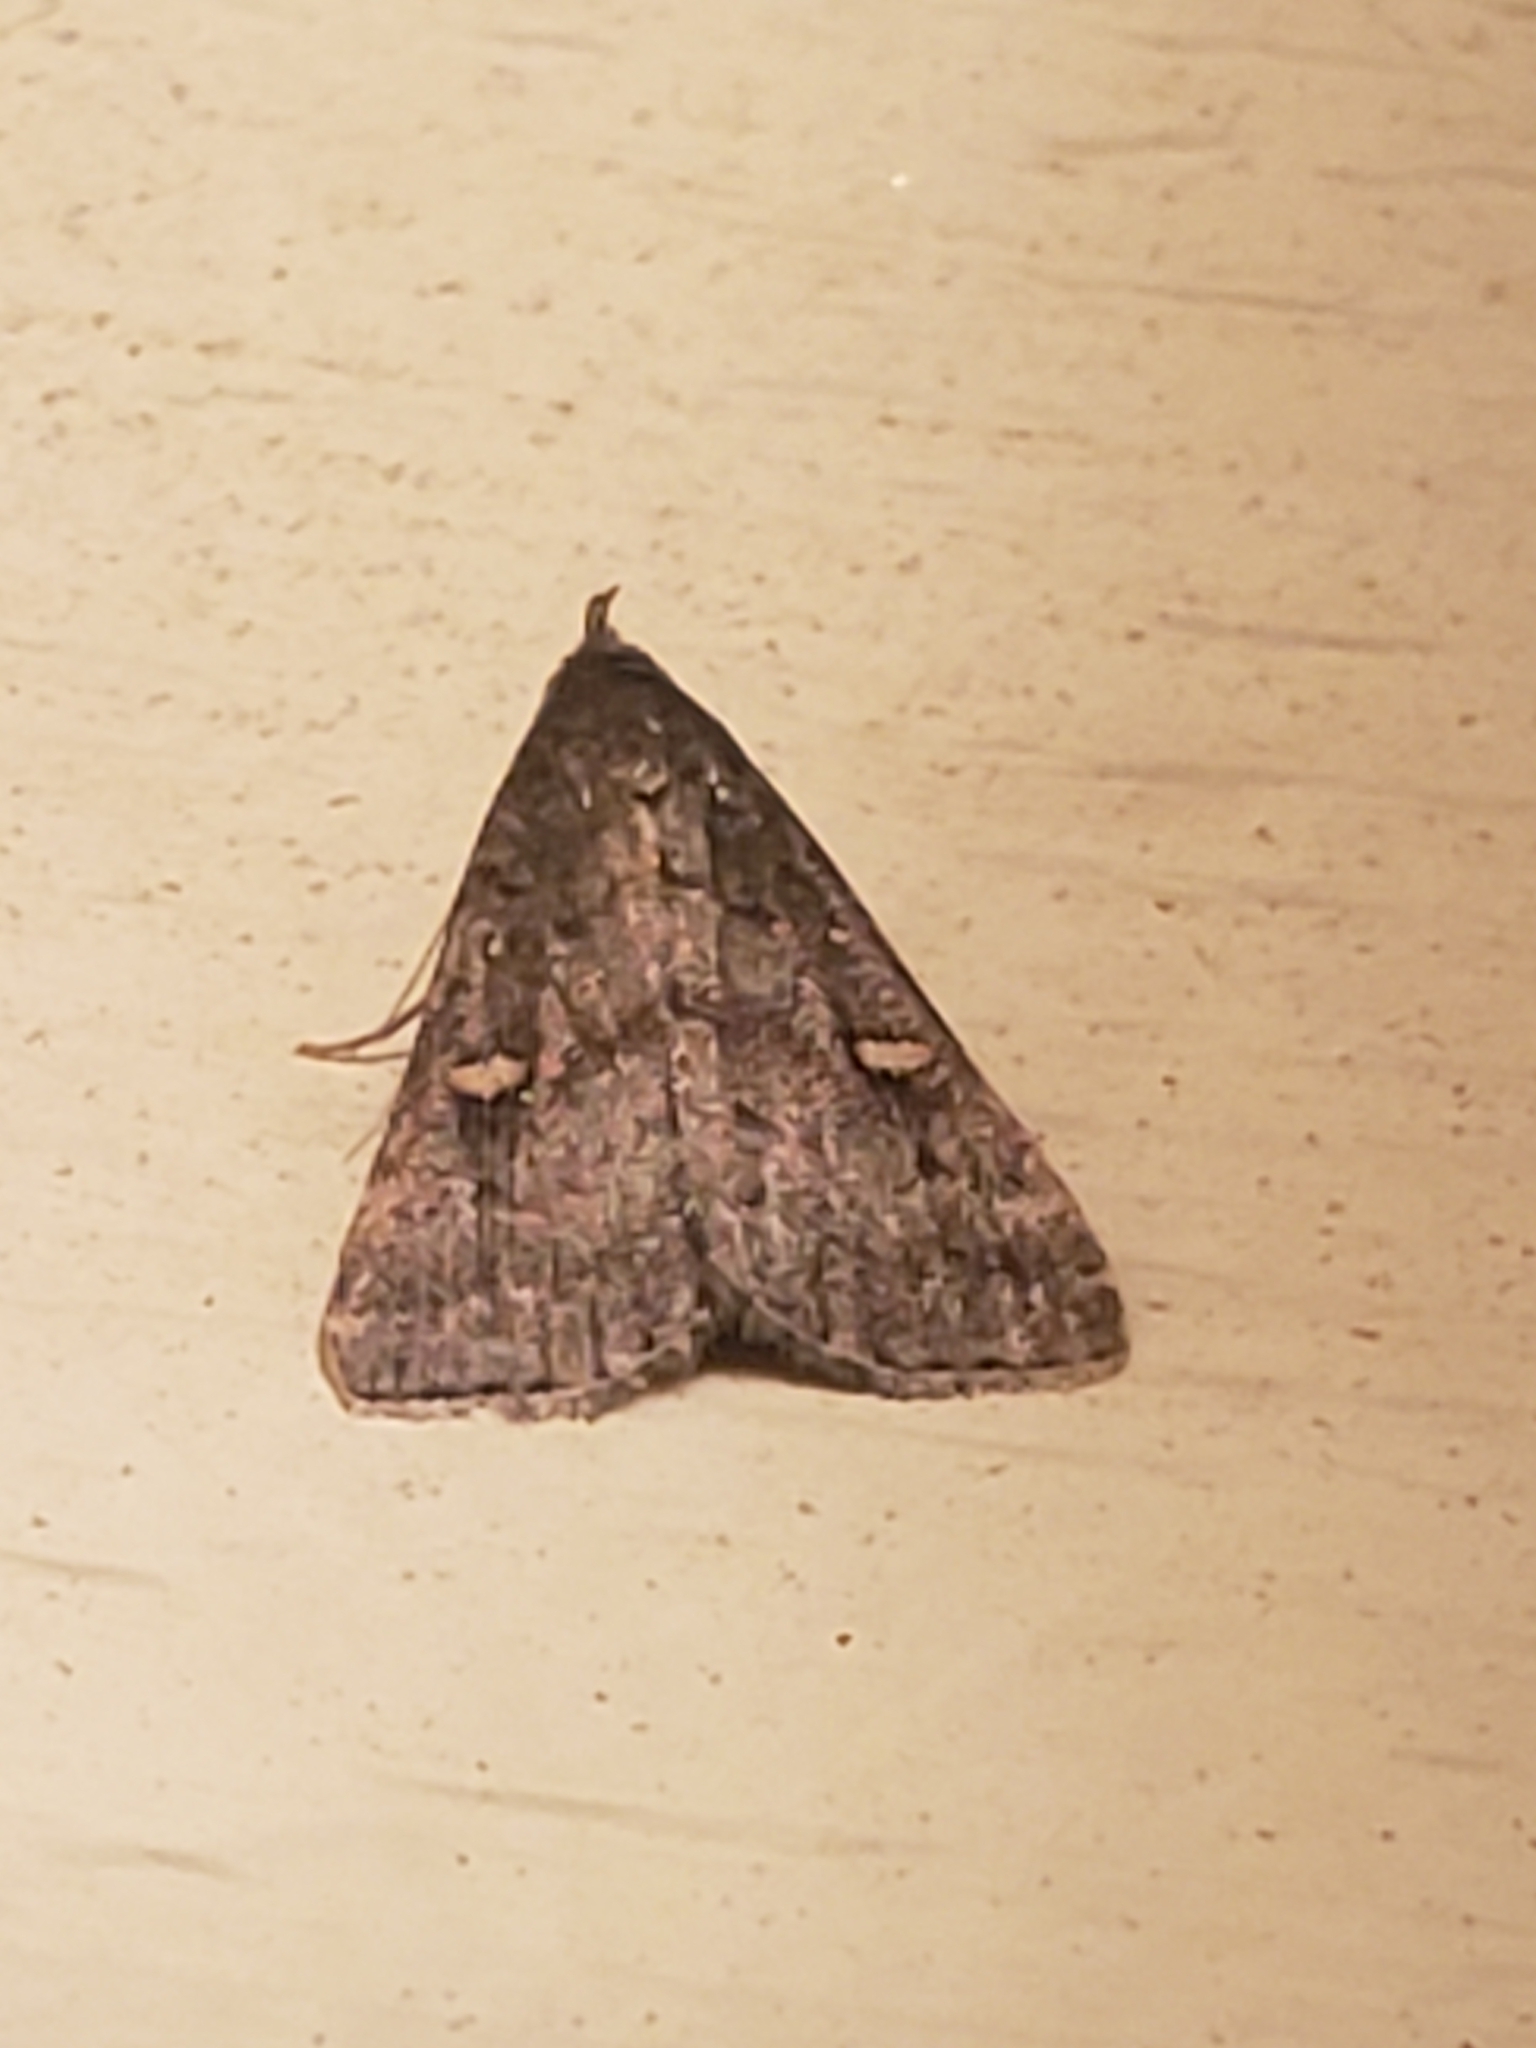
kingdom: Animalia
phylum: Arthropoda
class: Insecta
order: Lepidoptera
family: Erebidae
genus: Tetanolita
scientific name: Tetanolita mynesalis
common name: Smoky tetanolita moth
